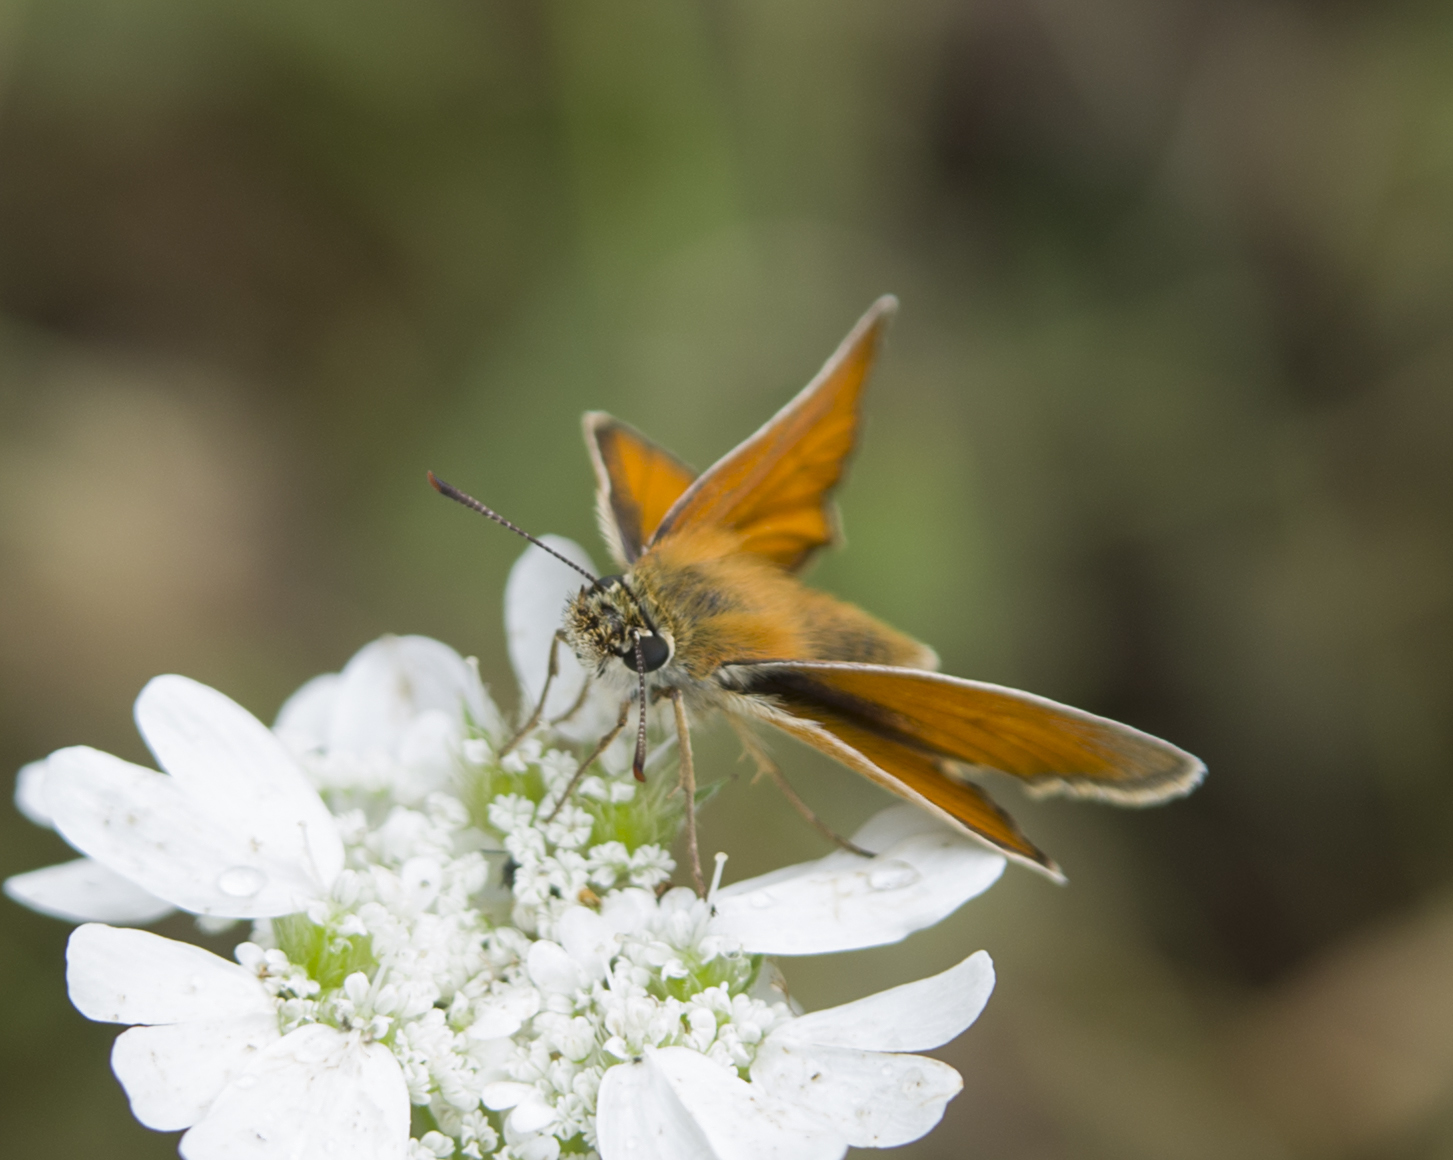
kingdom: Animalia
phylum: Arthropoda
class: Insecta
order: Lepidoptera
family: Hesperiidae
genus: Thymelicus
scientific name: Thymelicus sylvestris
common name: Small skipper
